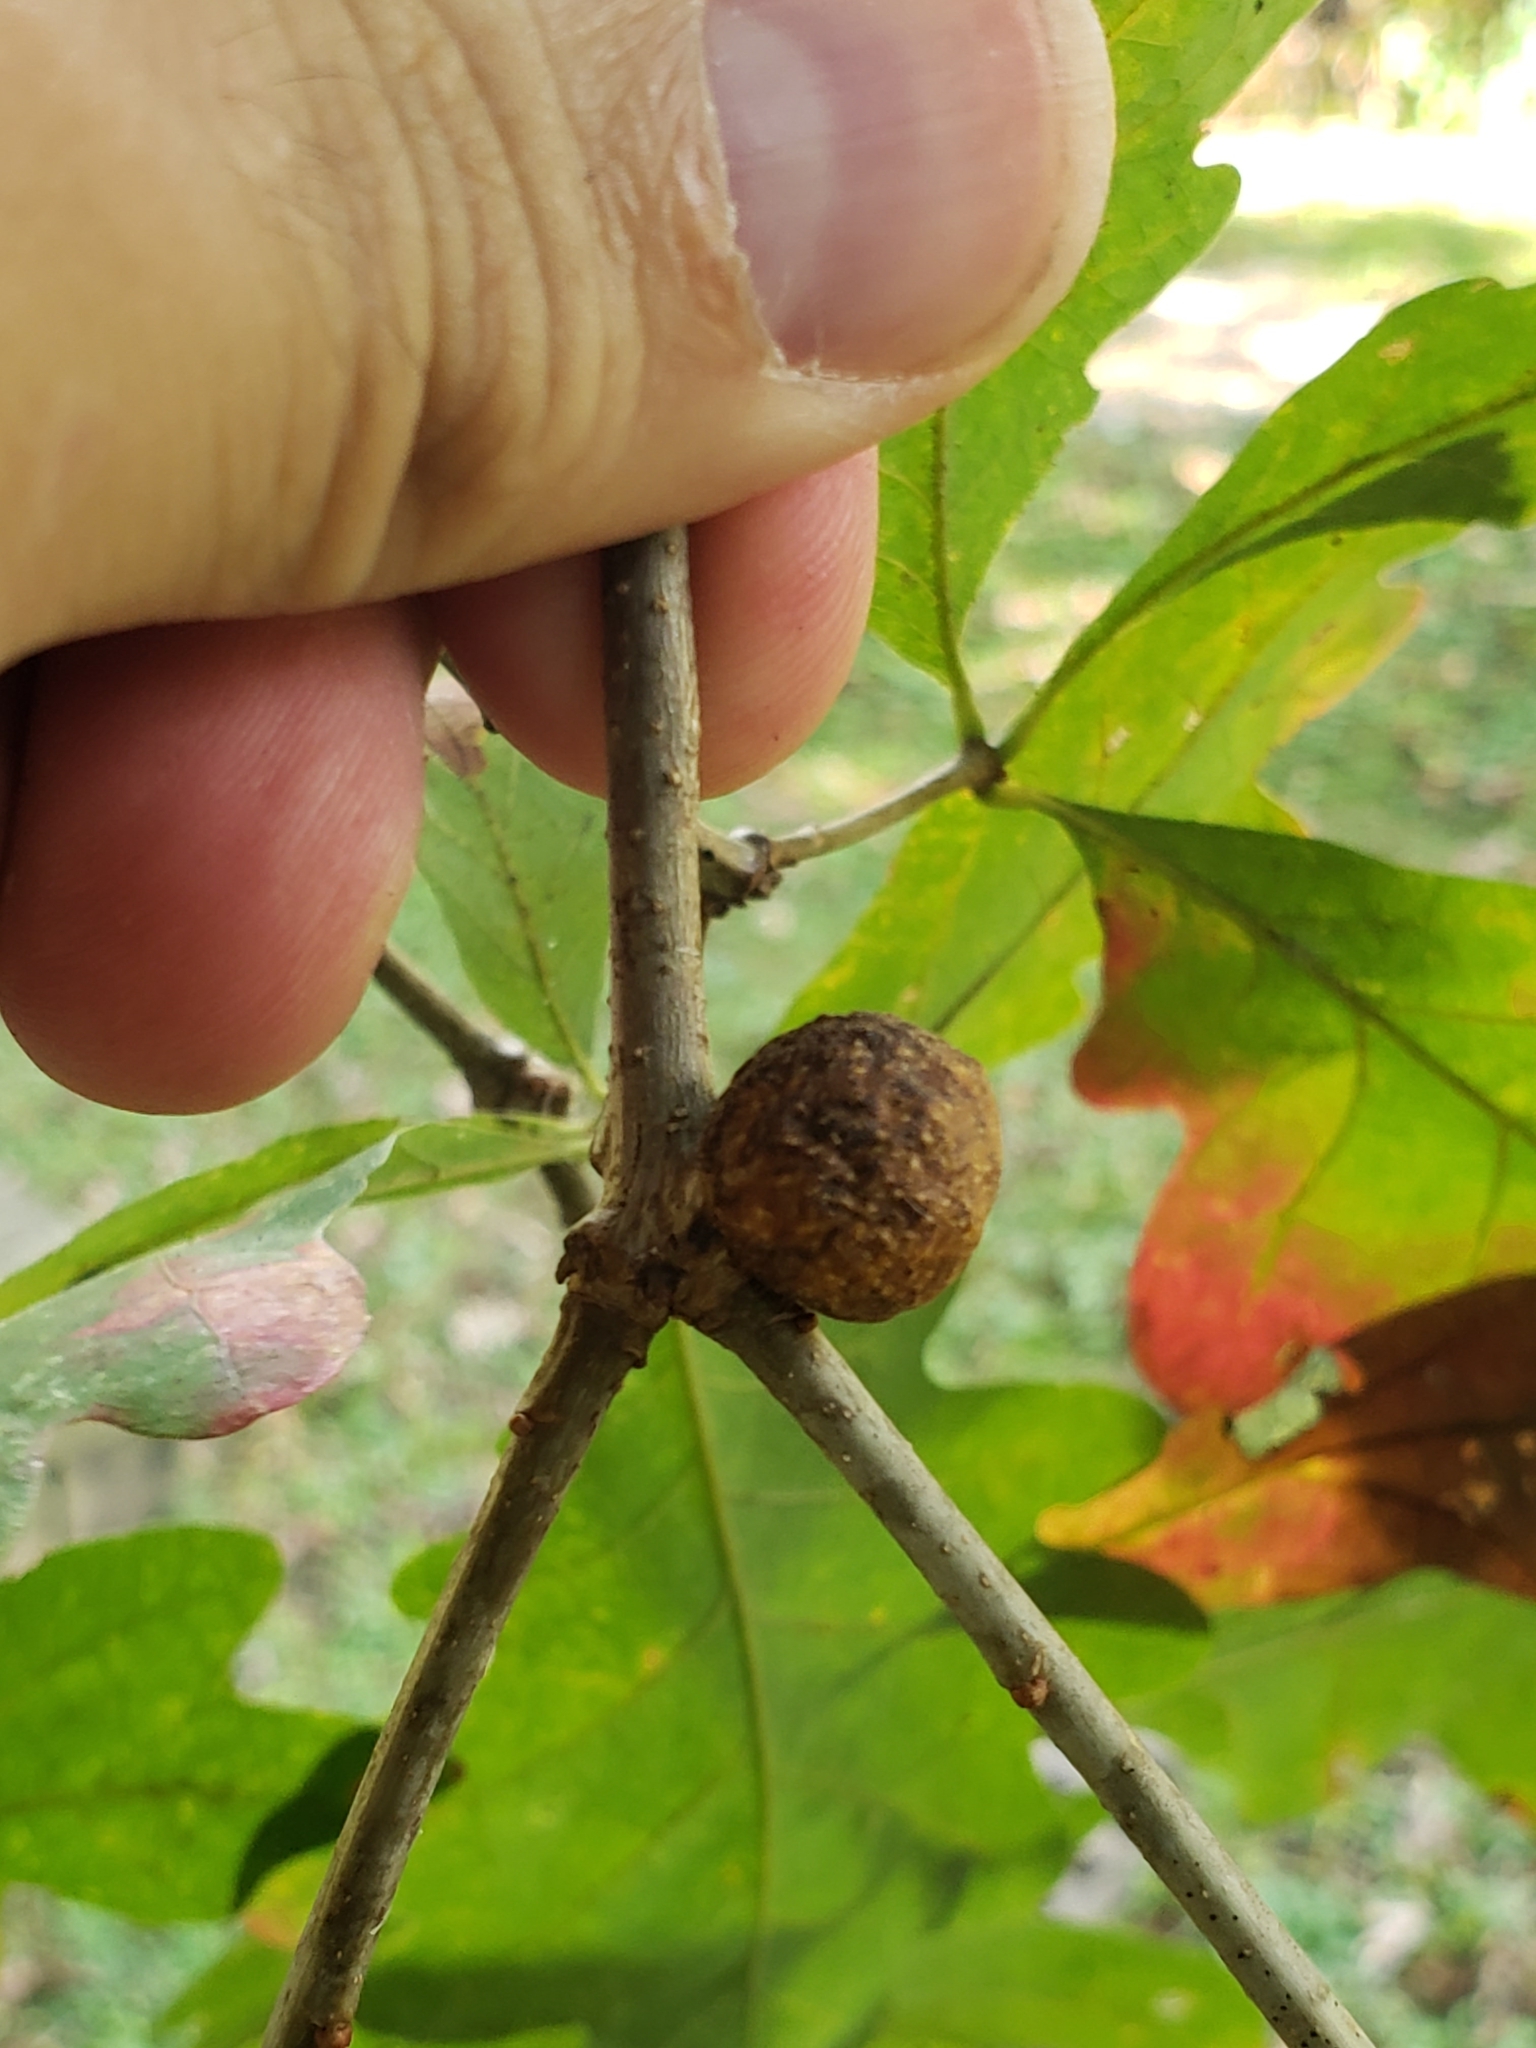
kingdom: Animalia
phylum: Arthropoda
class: Insecta
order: Hymenoptera
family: Cynipidae
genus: Disholcaspis
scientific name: Disholcaspis quercusglobulus
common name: Round bullet gall wasp
